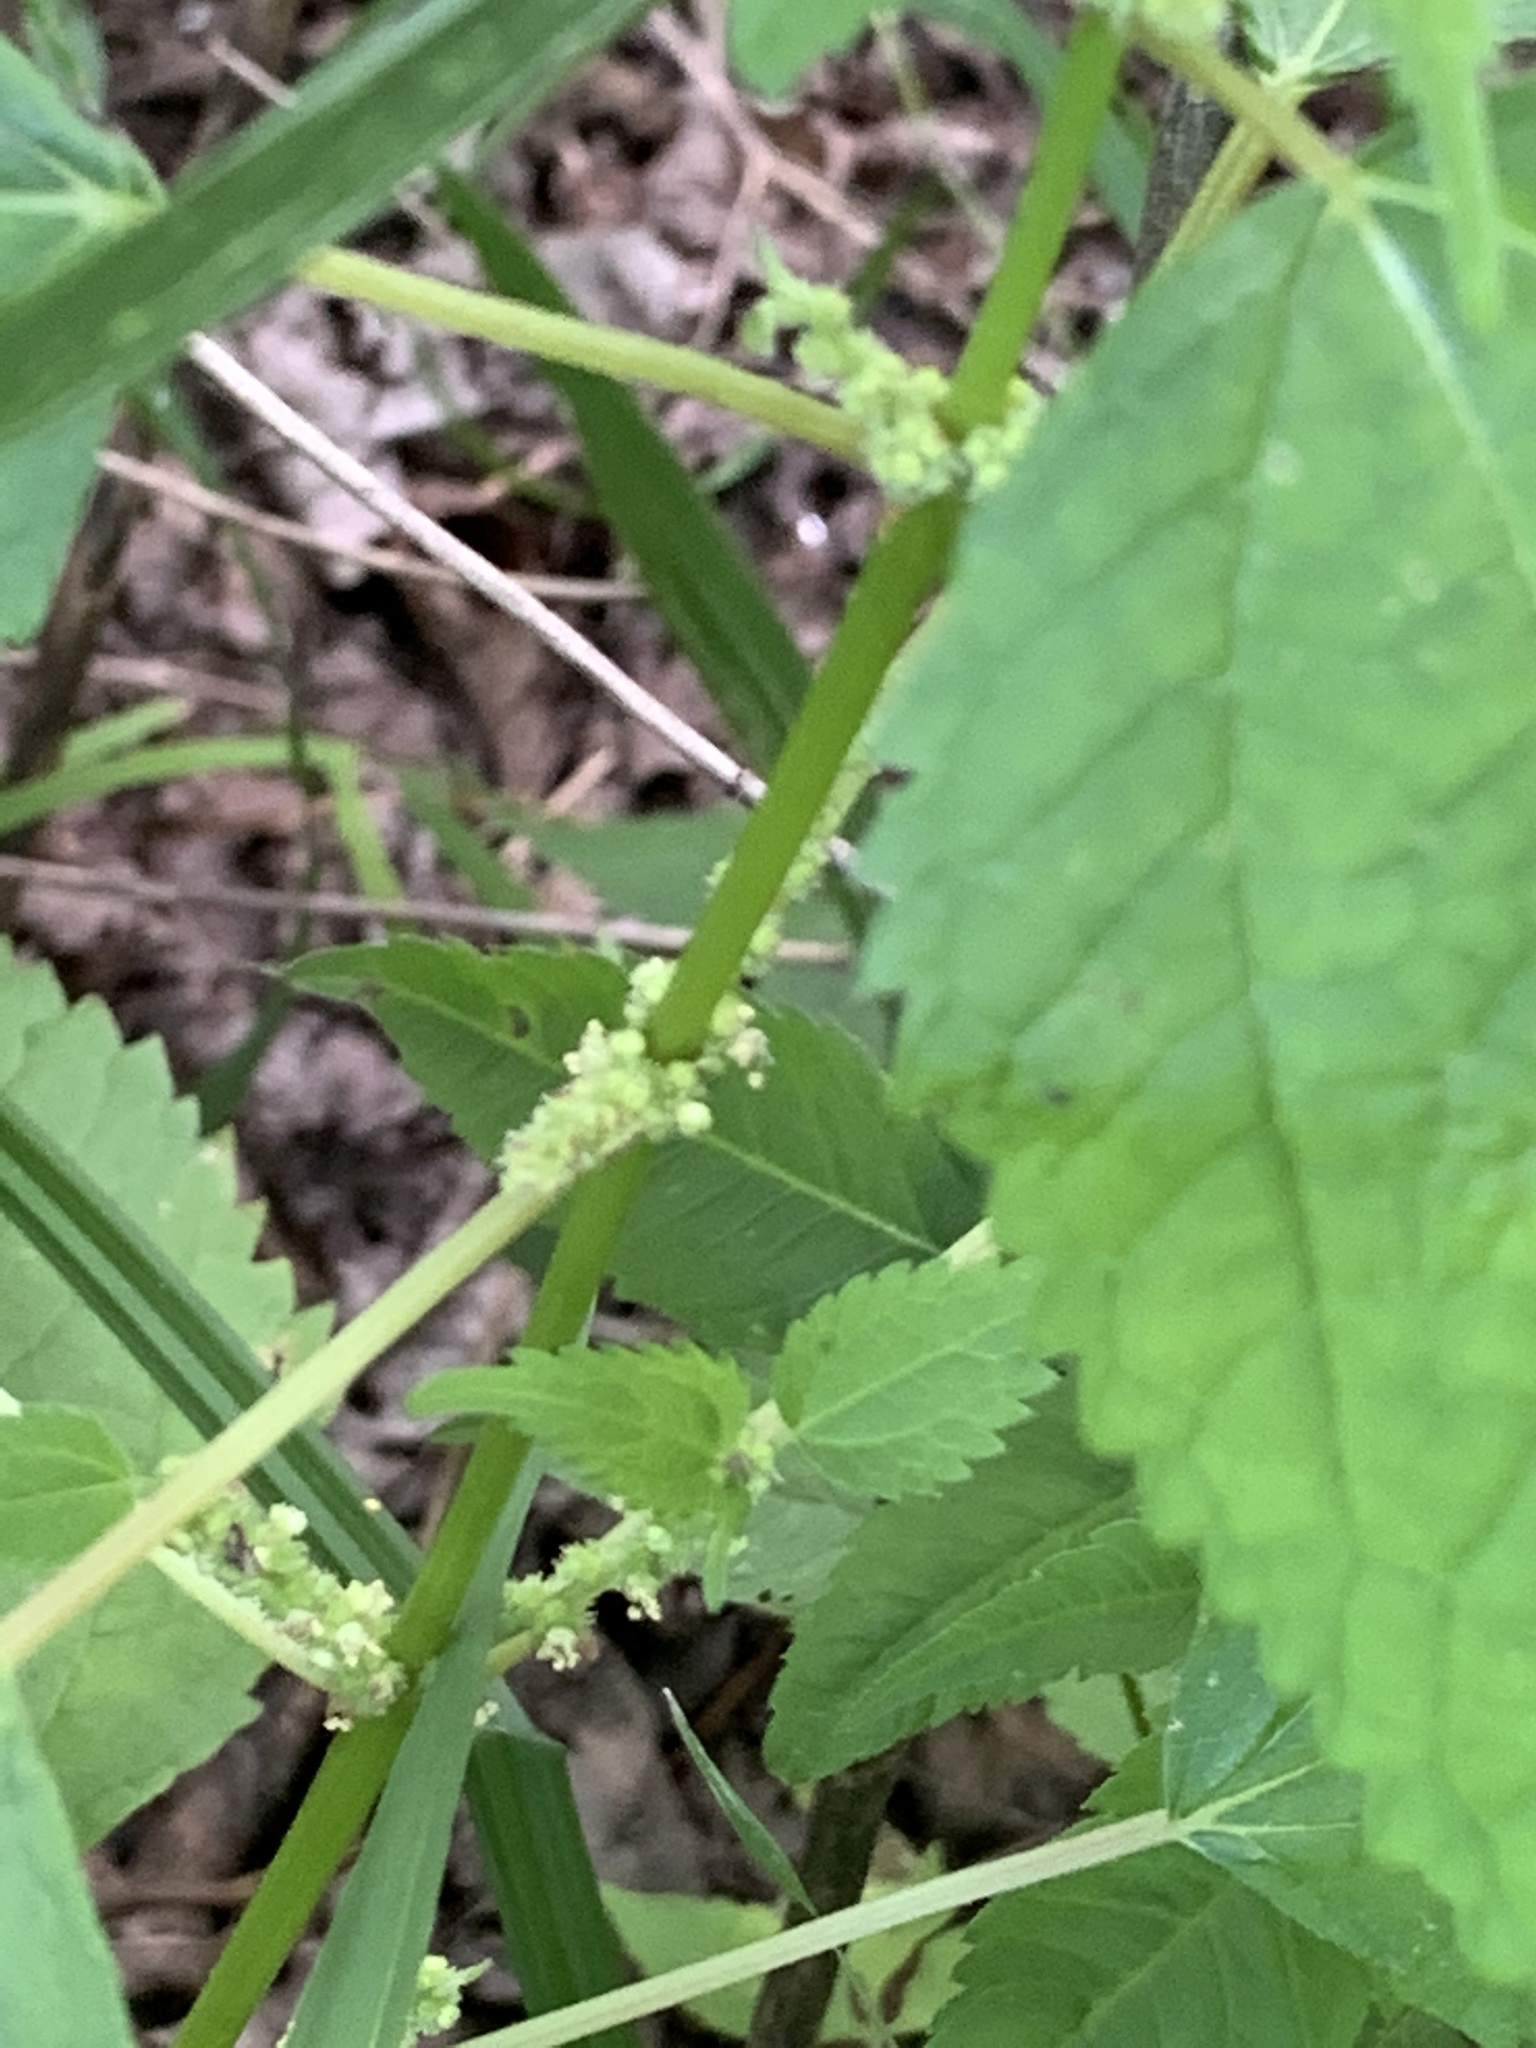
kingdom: Plantae
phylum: Tracheophyta
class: Magnoliopsida
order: Rosales
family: Urticaceae
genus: Boehmeria
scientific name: Boehmeria cylindrica
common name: Bog-hemp
